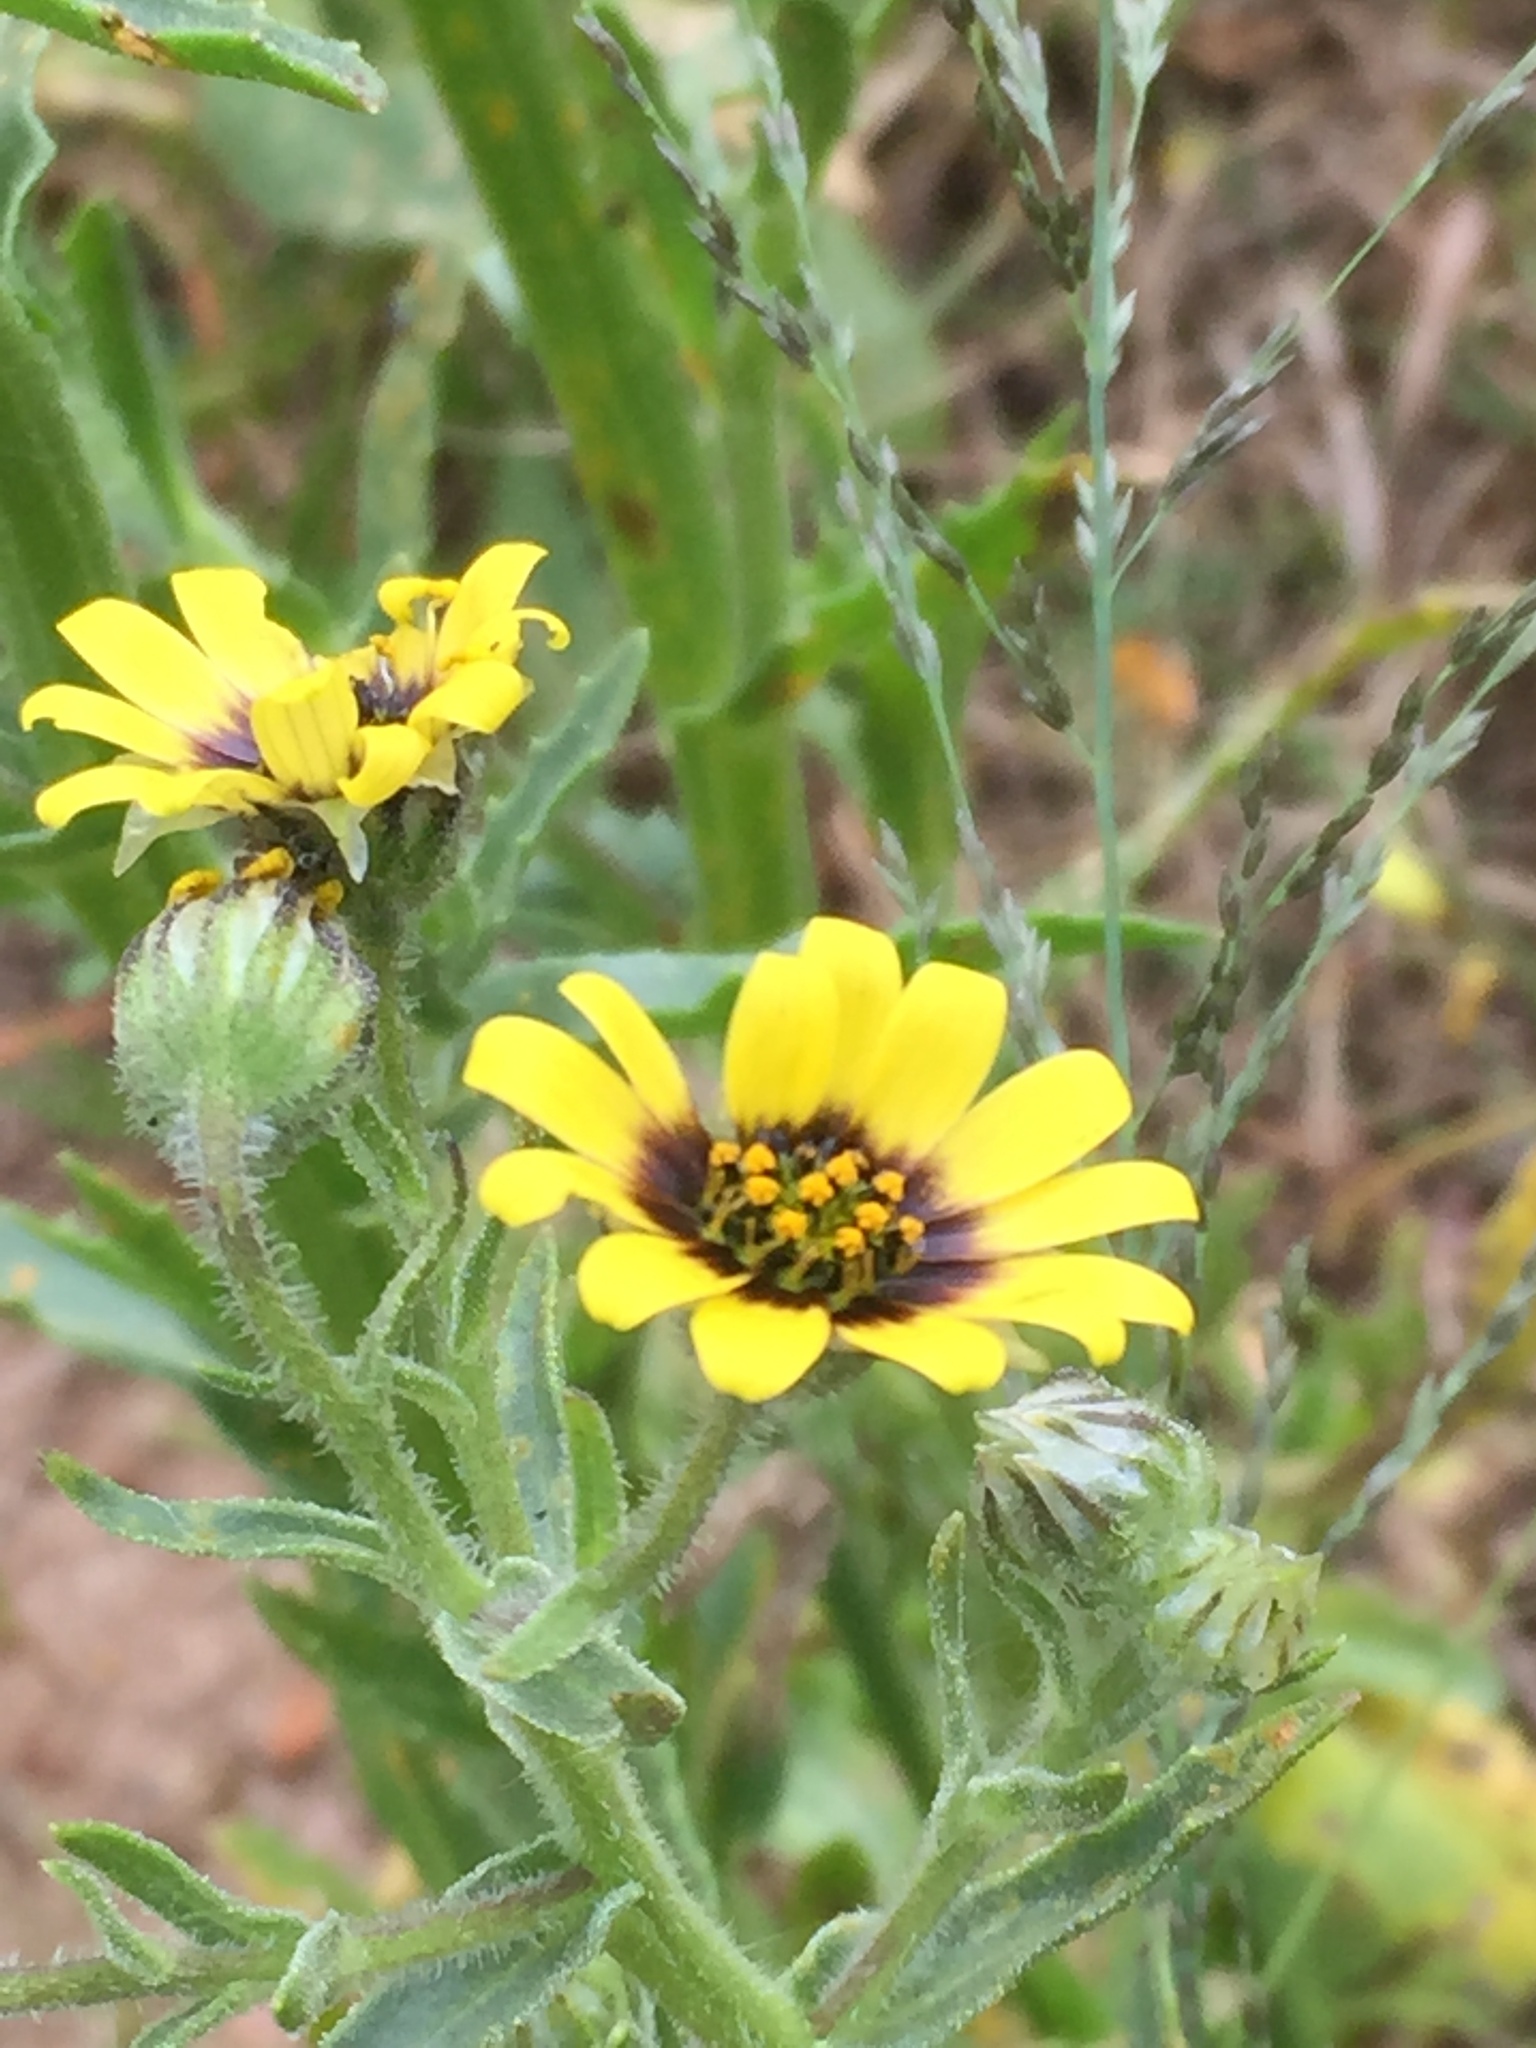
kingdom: Plantae
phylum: Tracheophyta
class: Magnoliopsida
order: Asterales
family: Asteraceae
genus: Osteospermum
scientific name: Osteospermum monstrosum
